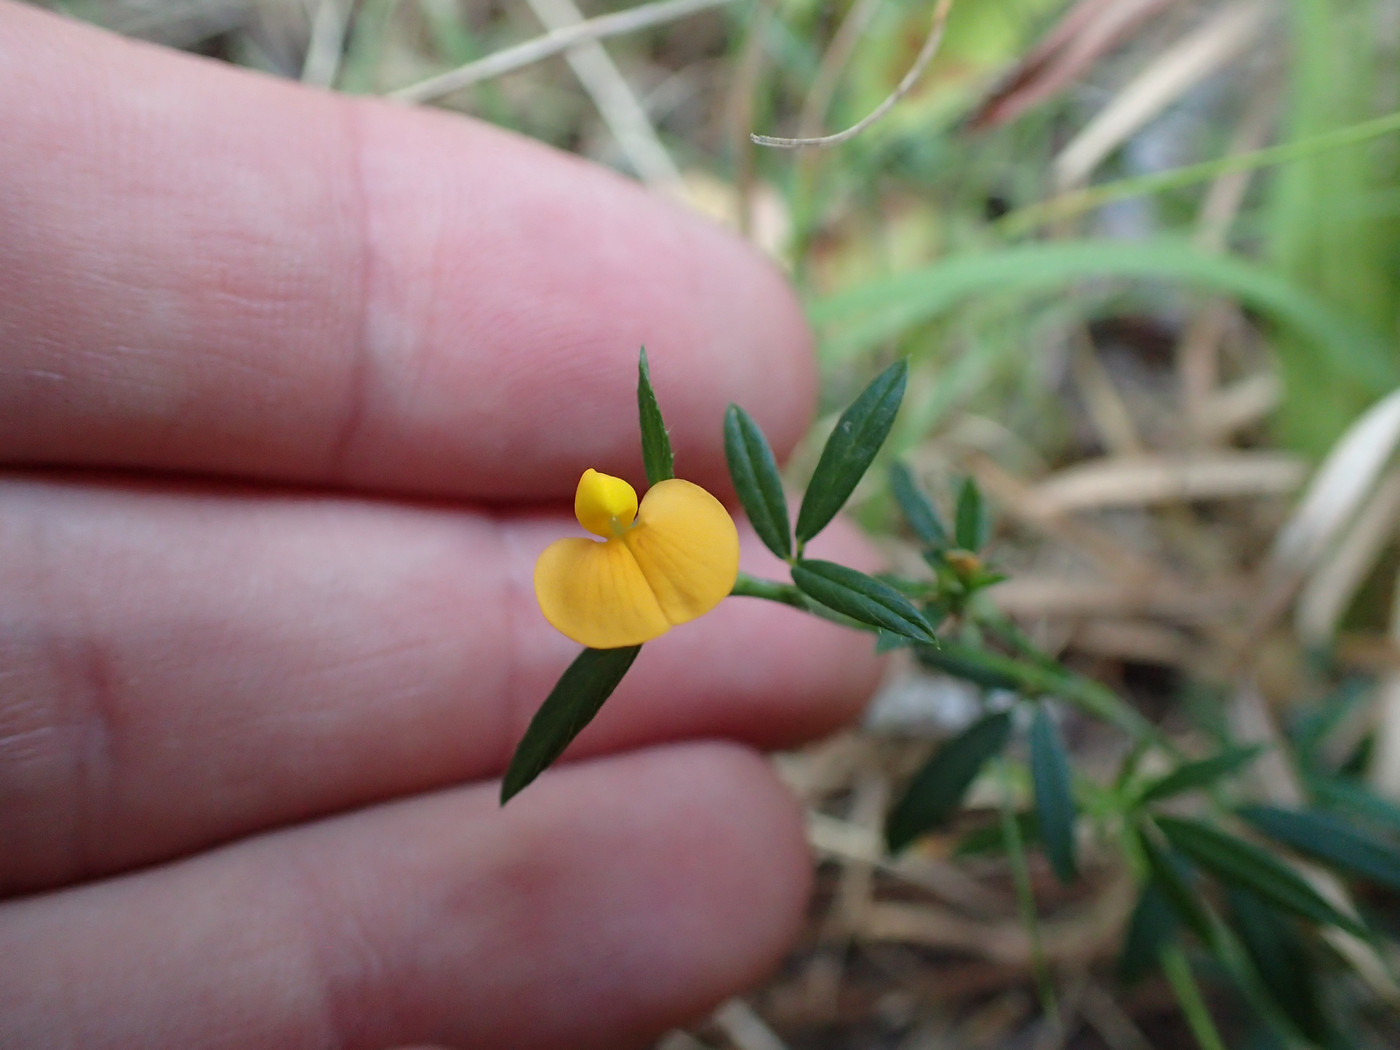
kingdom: Plantae
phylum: Tracheophyta
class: Magnoliopsida
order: Fabales
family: Fabaceae
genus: Stylosanthes
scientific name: Stylosanthes biflora
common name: Two-flower pencil-flower
